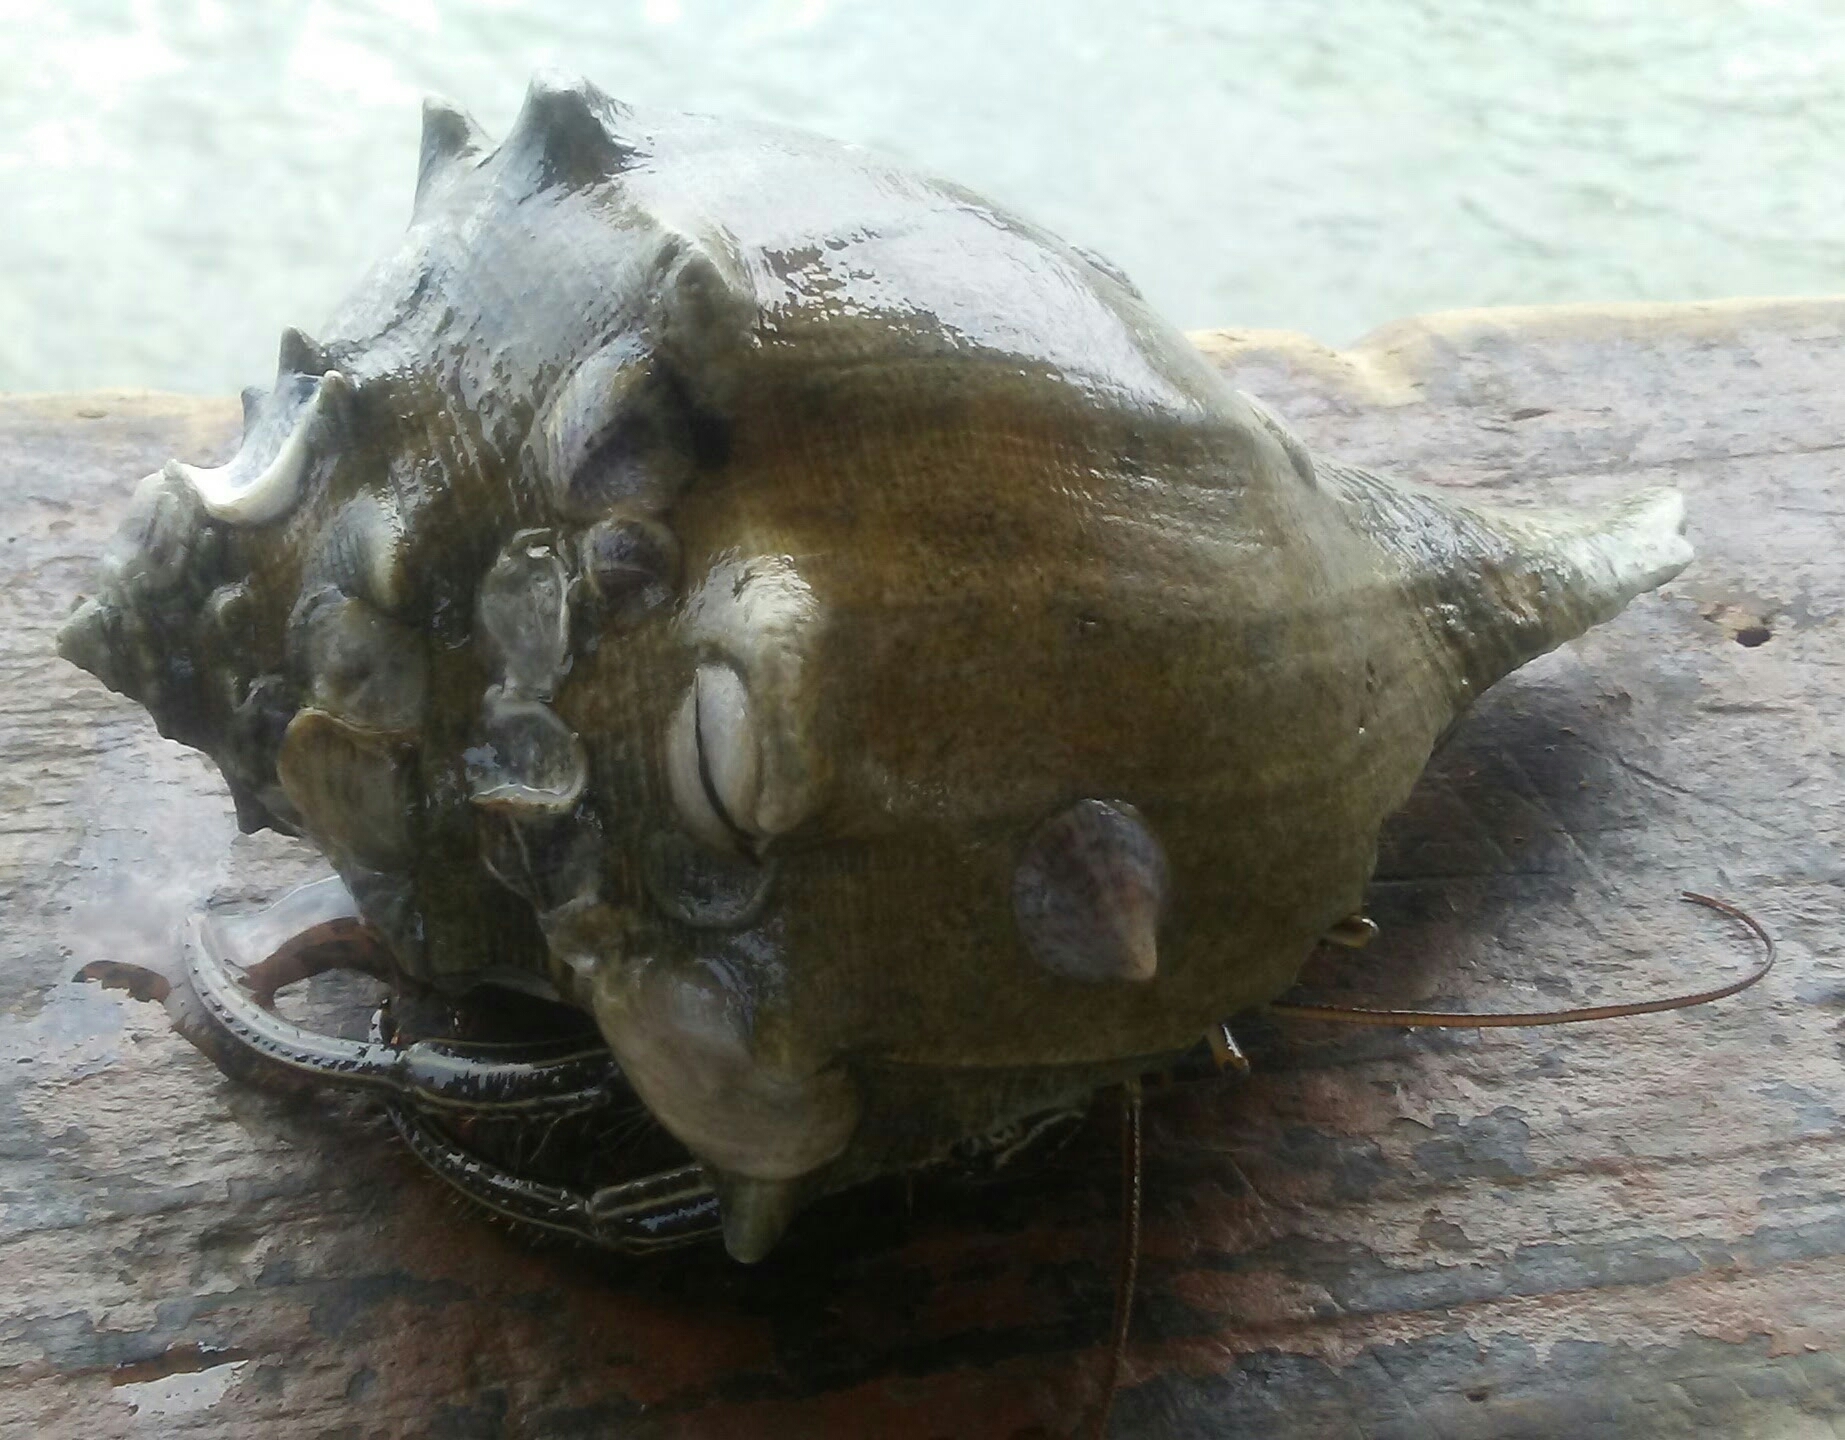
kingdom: Animalia
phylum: Arthropoda
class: Malacostraca
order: Decapoda
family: Diogenidae
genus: Clibanarius
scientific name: Clibanarius vittatus
